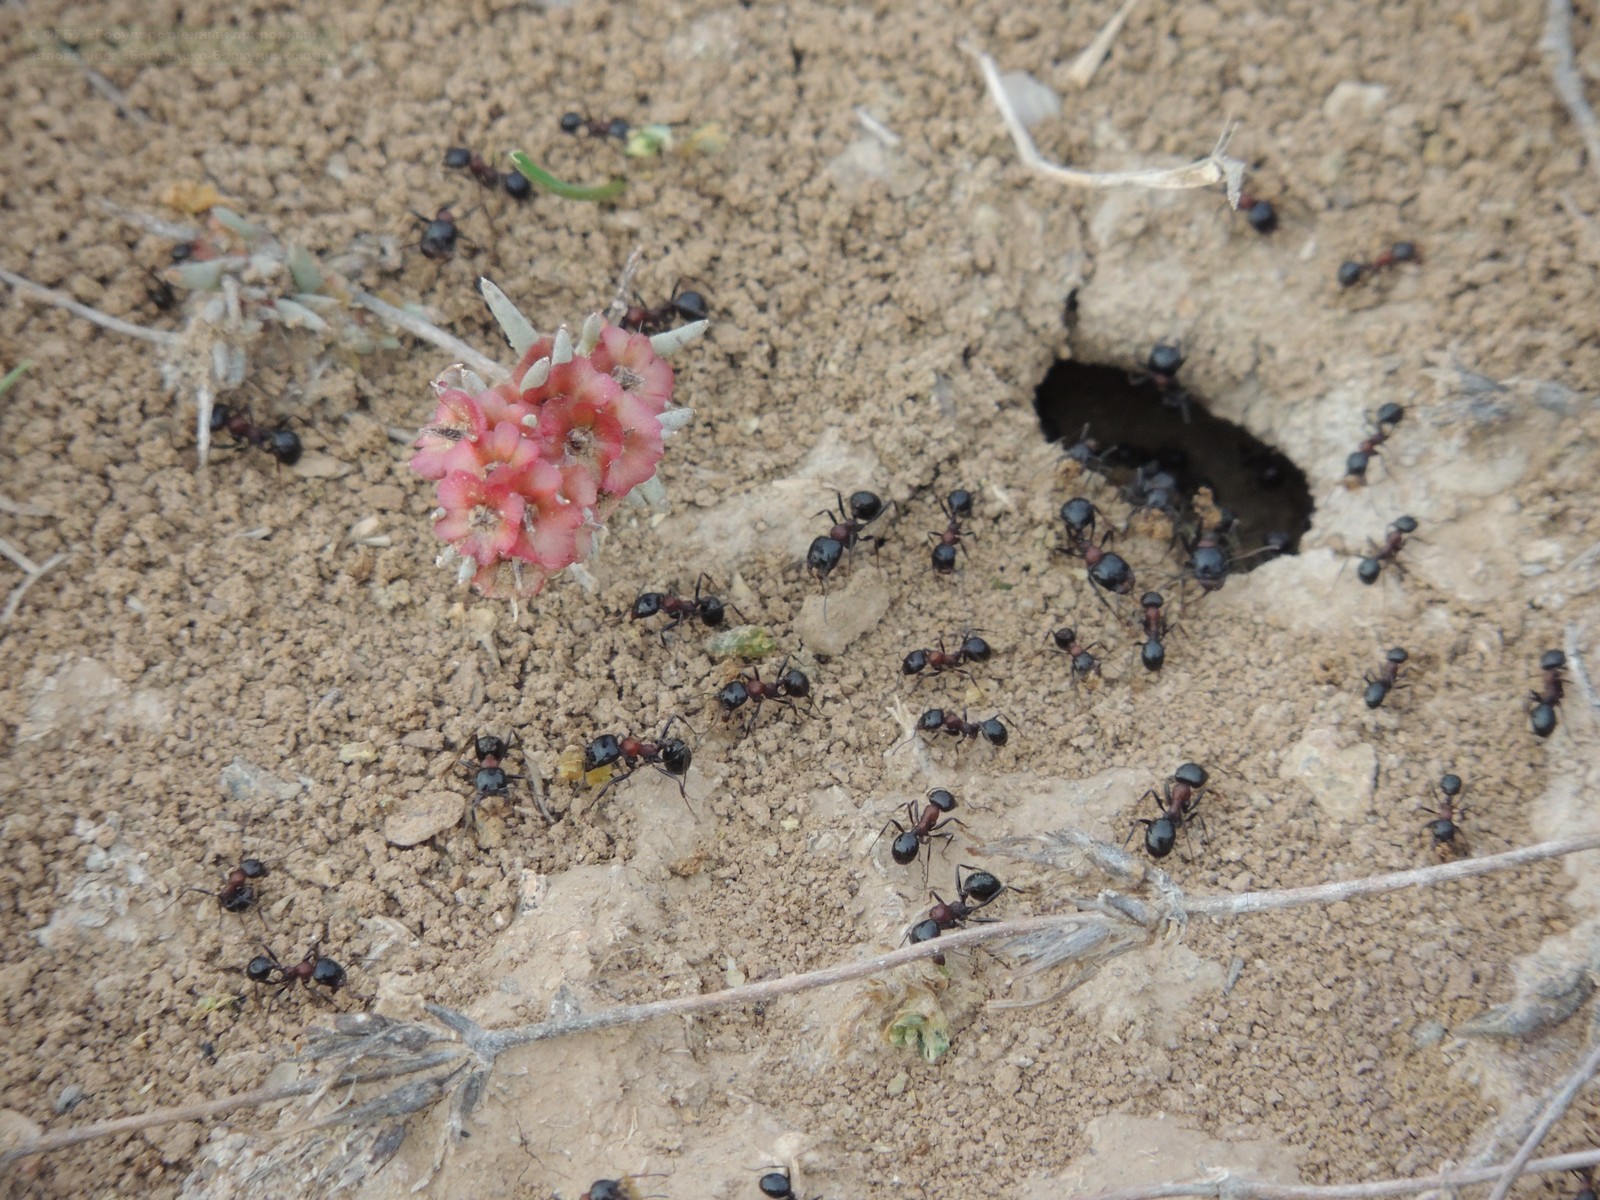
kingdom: Animalia
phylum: Arthropoda
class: Insecta
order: Hymenoptera
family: Formicidae
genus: Messor
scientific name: Messor denticulatus
